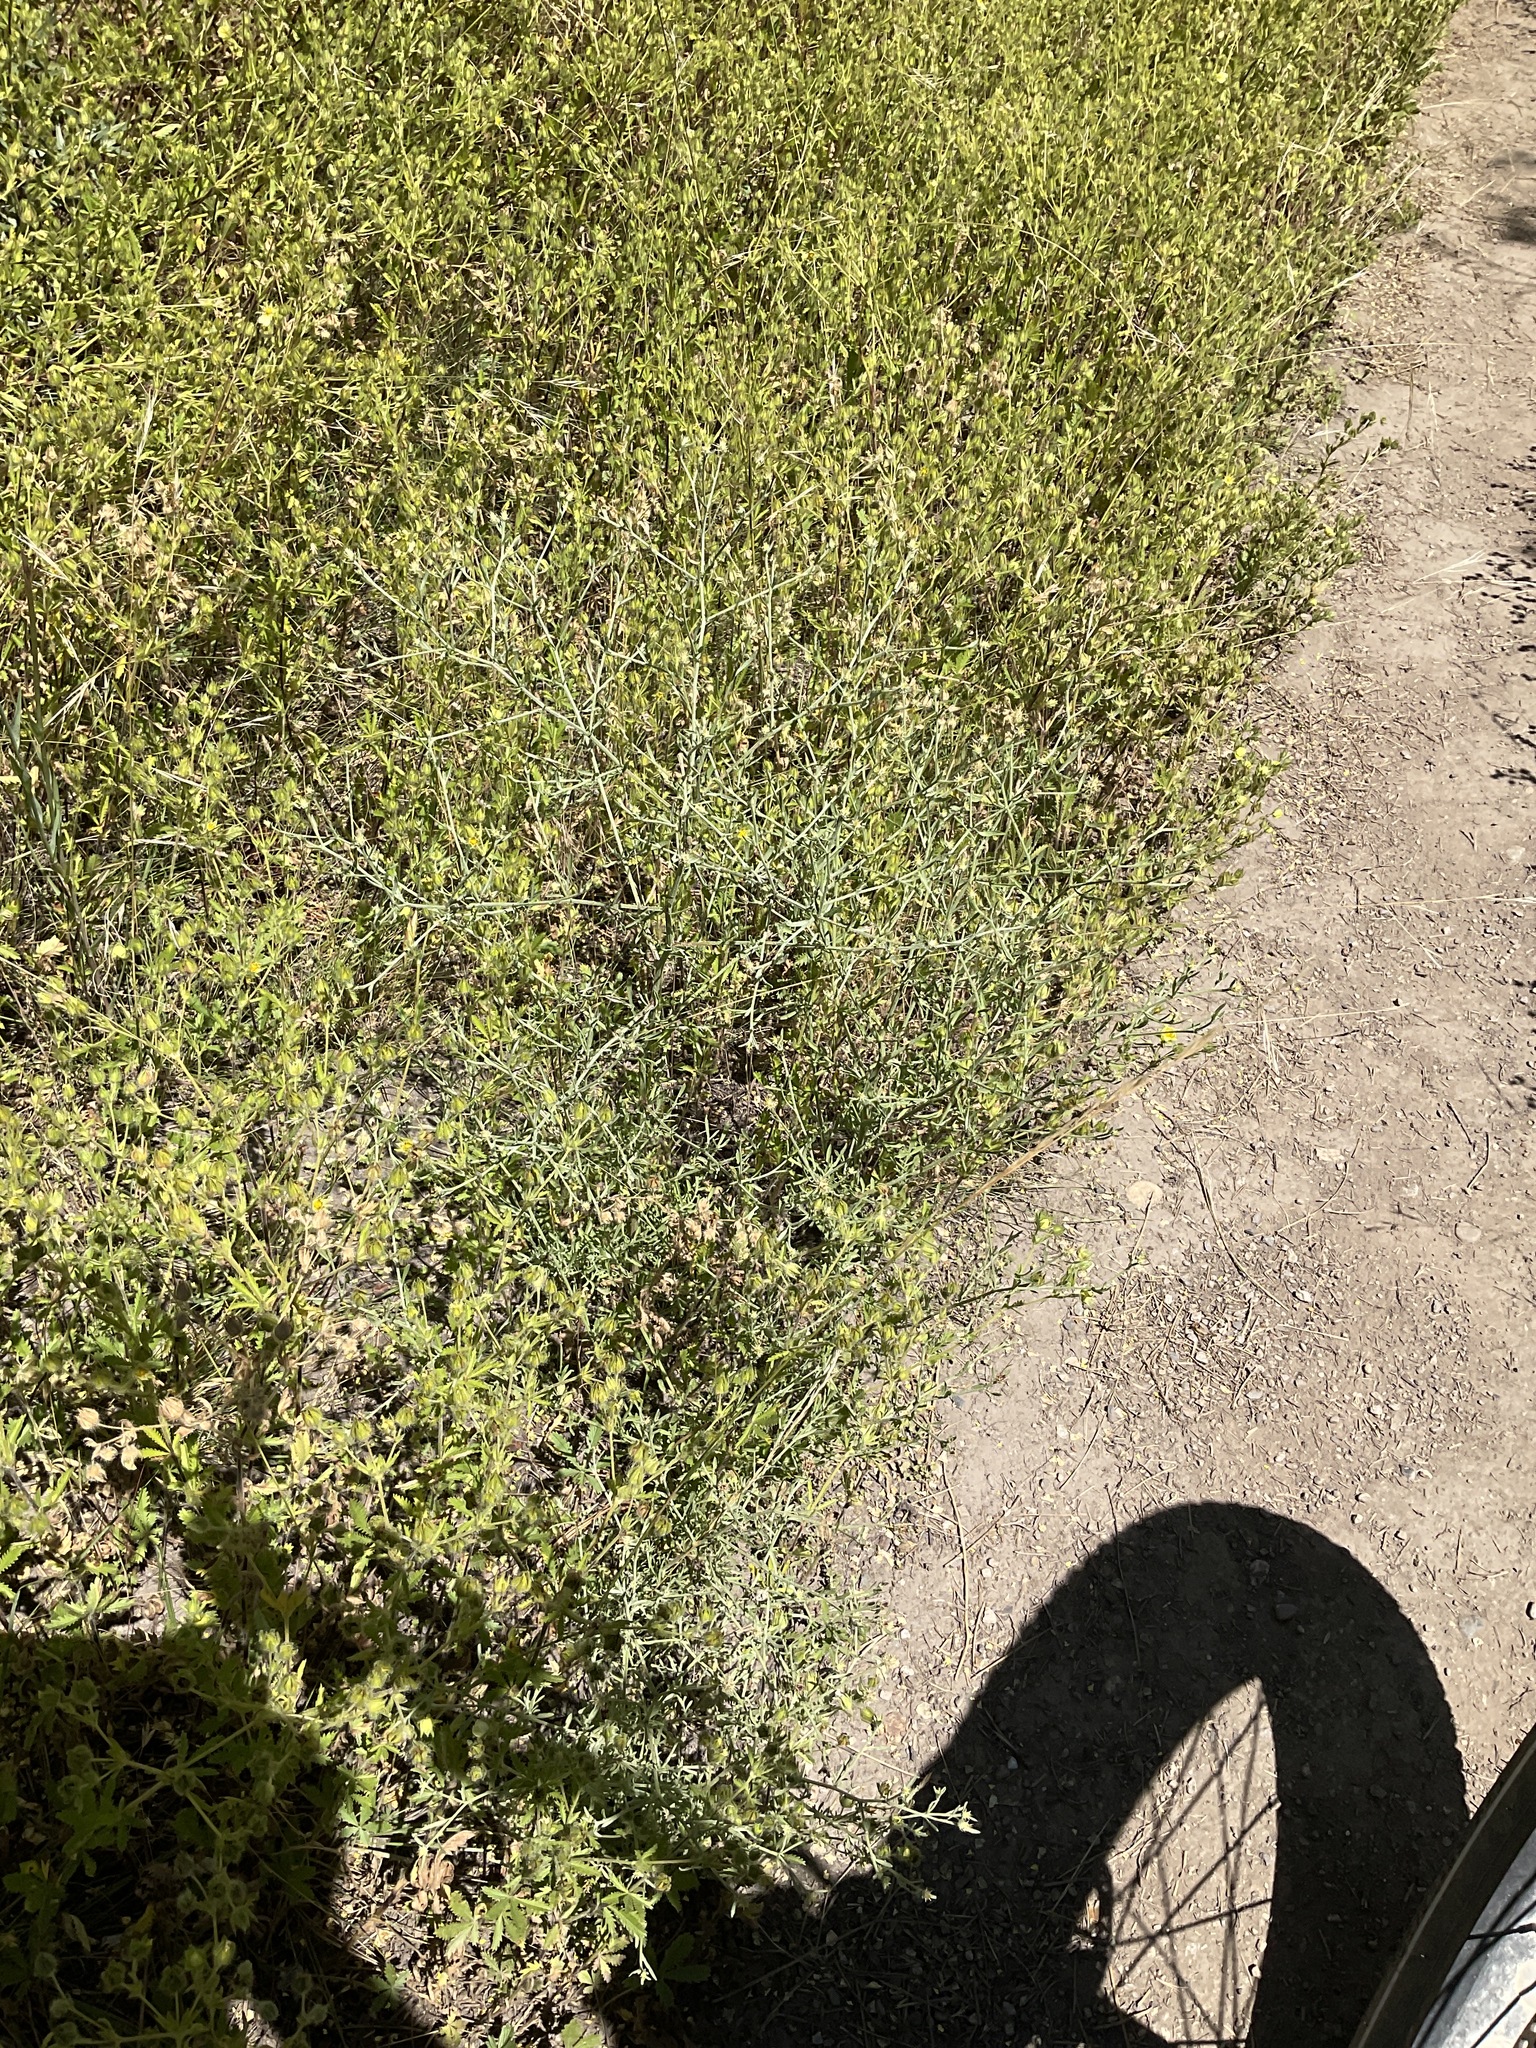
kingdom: Plantae
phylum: Tracheophyta
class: Magnoliopsida
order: Asterales
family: Asteraceae
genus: Centaurea
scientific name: Centaurea diffusa
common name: Diffuse knapweed
